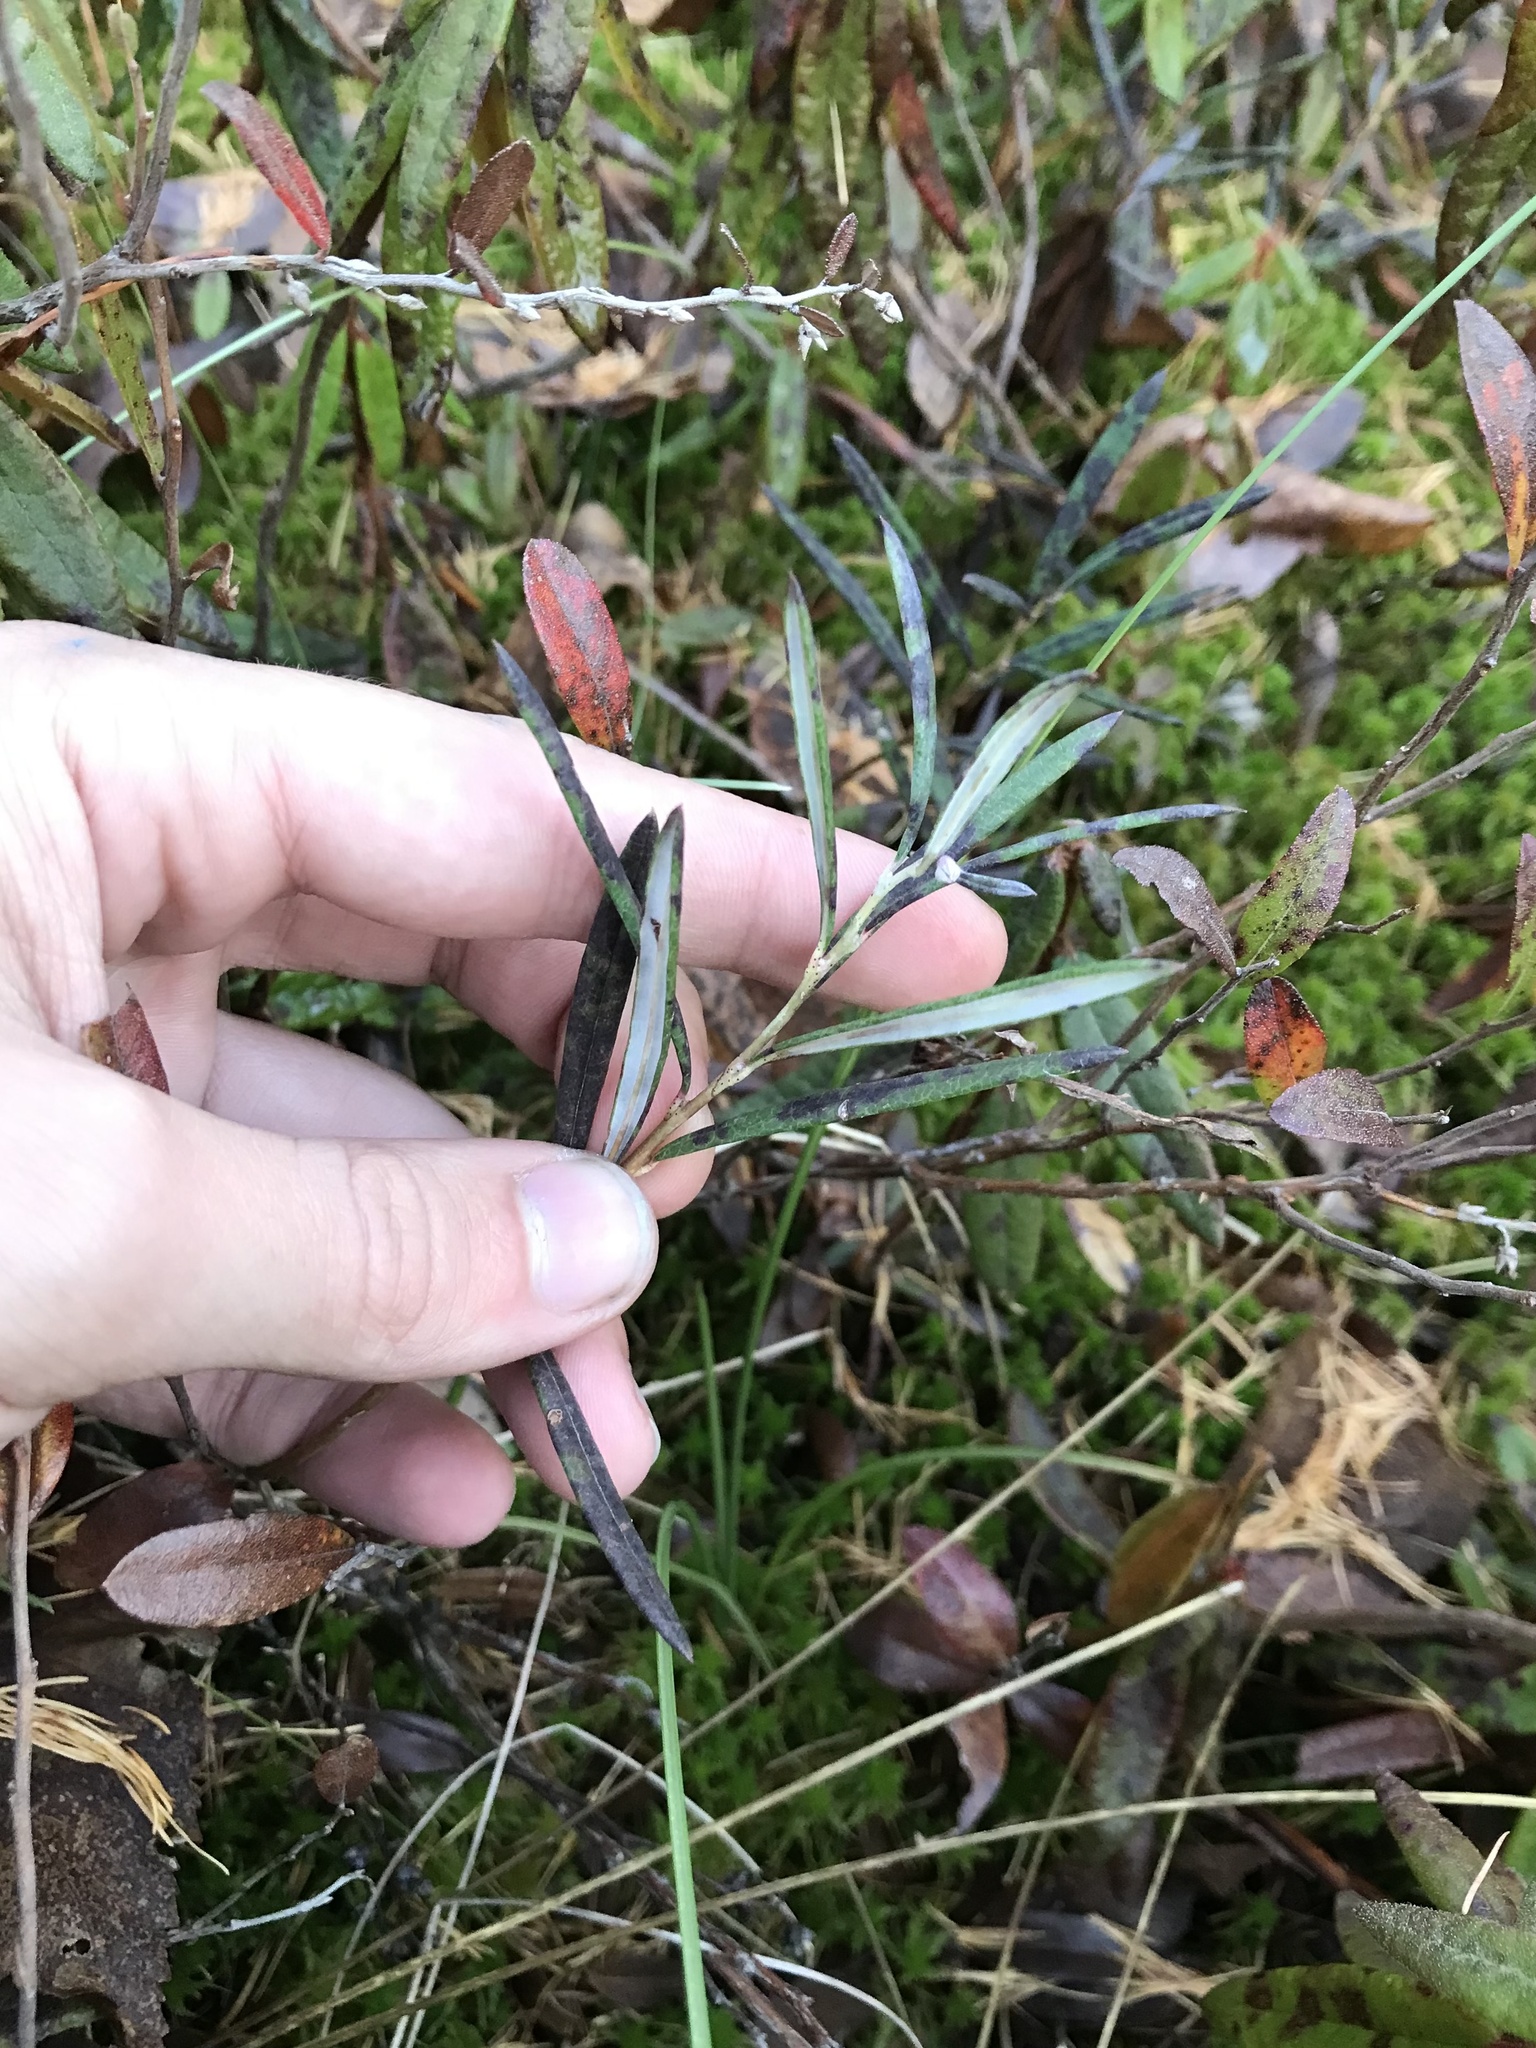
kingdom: Plantae
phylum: Tracheophyta
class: Magnoliopsida
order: Ericales
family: Ericaceae
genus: Andromeda
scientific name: Andromeda polifolia
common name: Bog-rosemary
